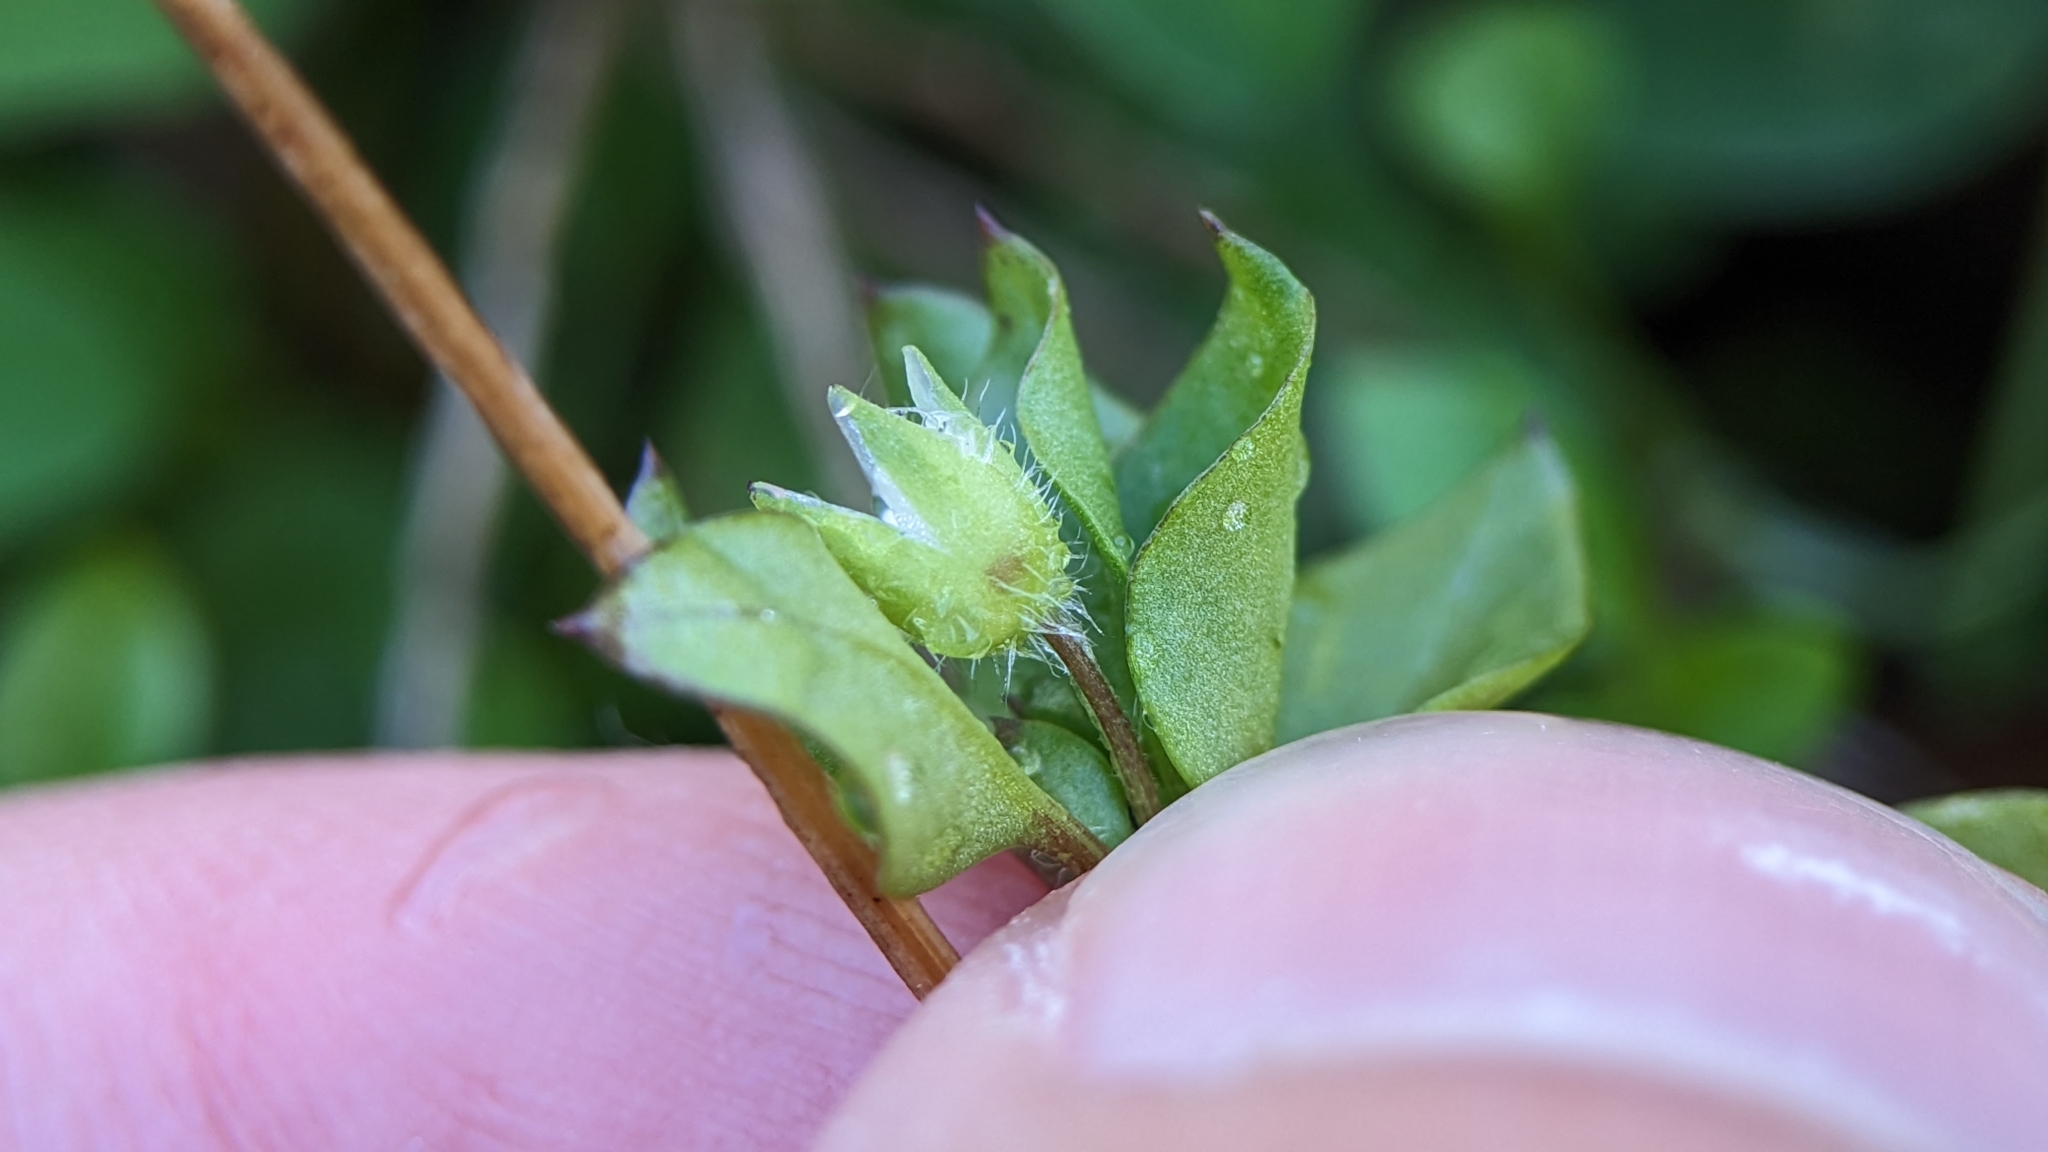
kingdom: Plantae
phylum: Tracheophyta
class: Magnoliopsida
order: Caryophyllales
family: Caryophyllaceae
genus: Stellaria
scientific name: Stellaria media
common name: Common chickweed
